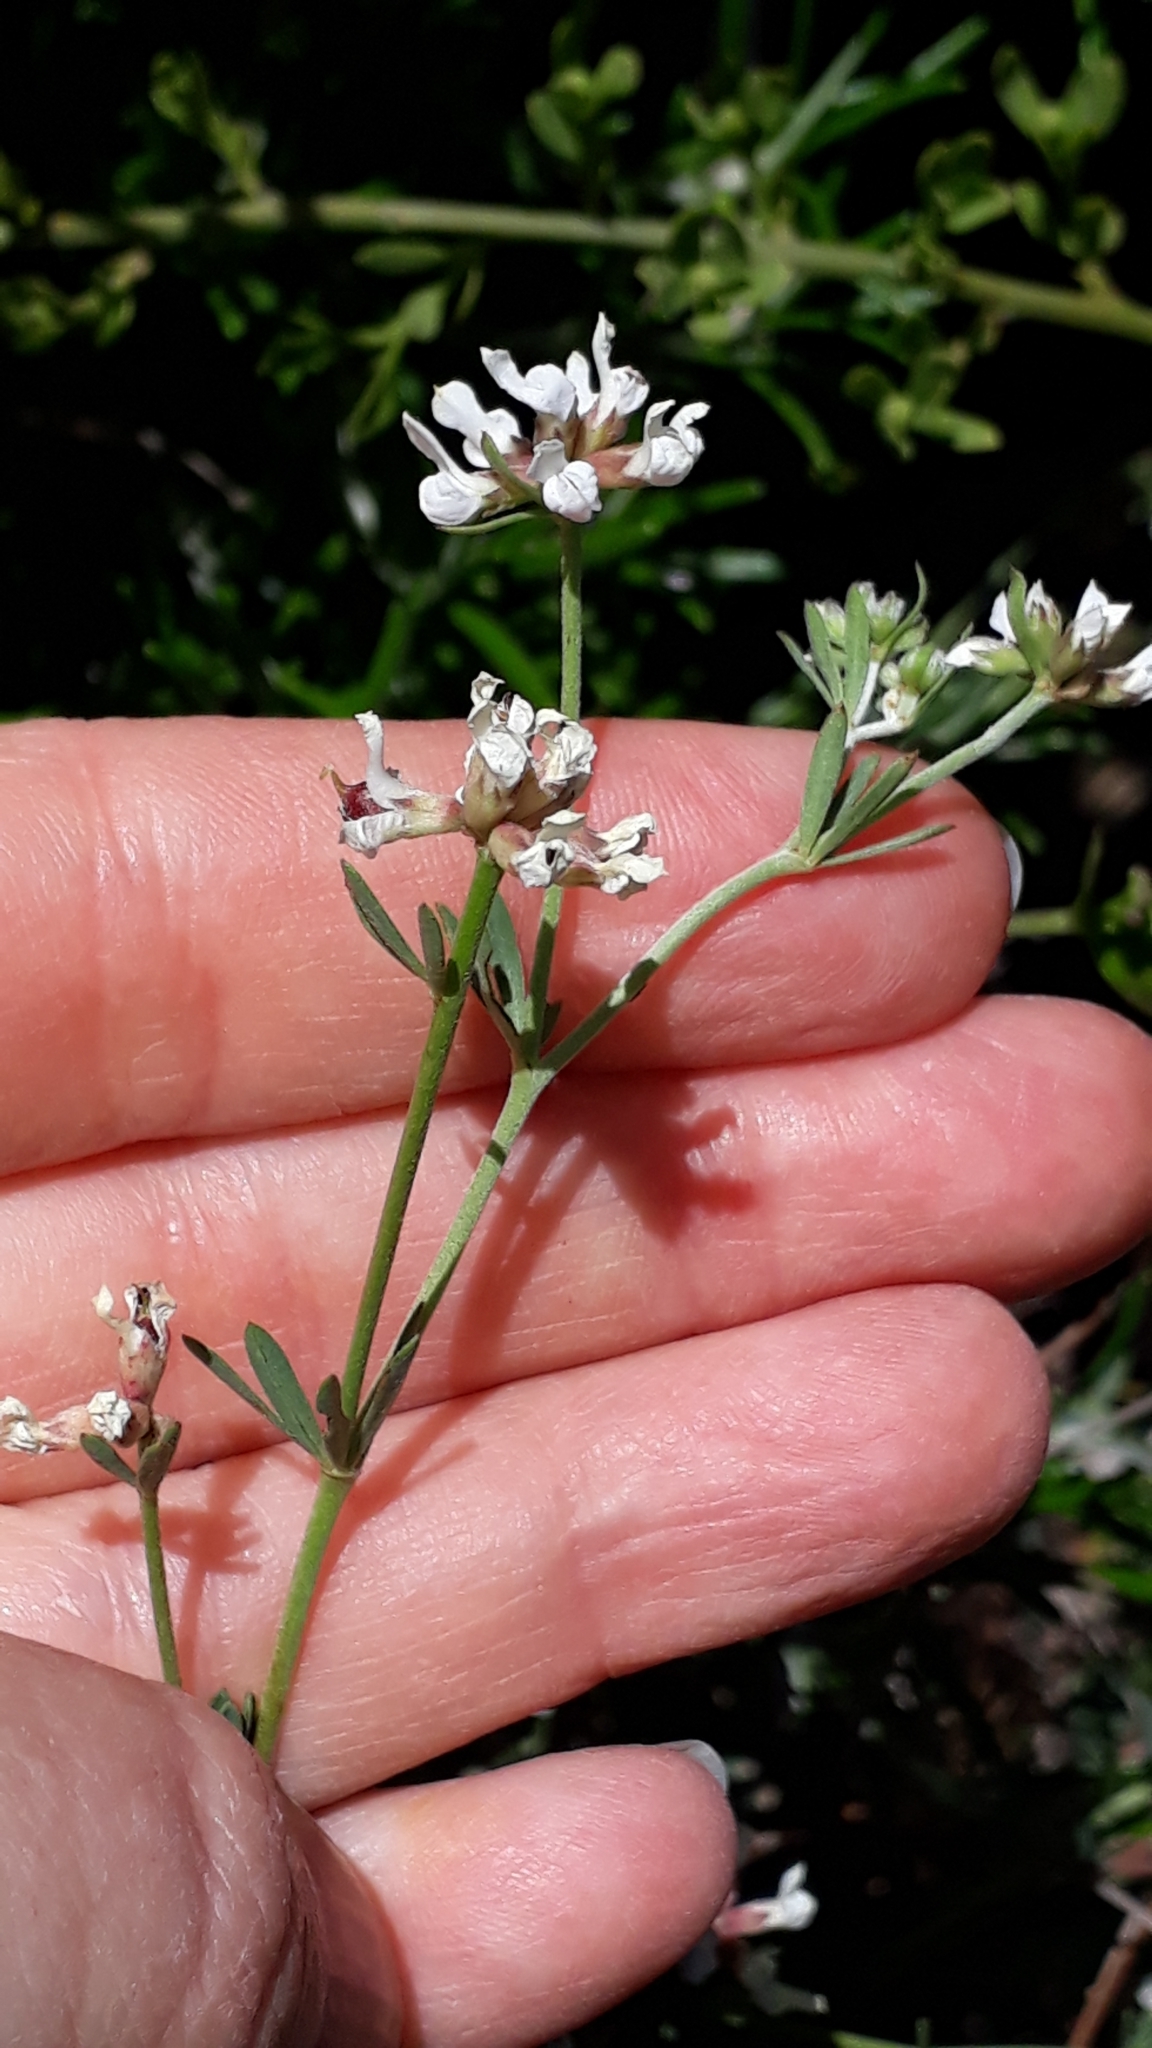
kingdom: Plantae
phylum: Tracheophyta
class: Magnoliopsida
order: Fabales
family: Fabaceae
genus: Lotus
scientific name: Lotus dorycnium
